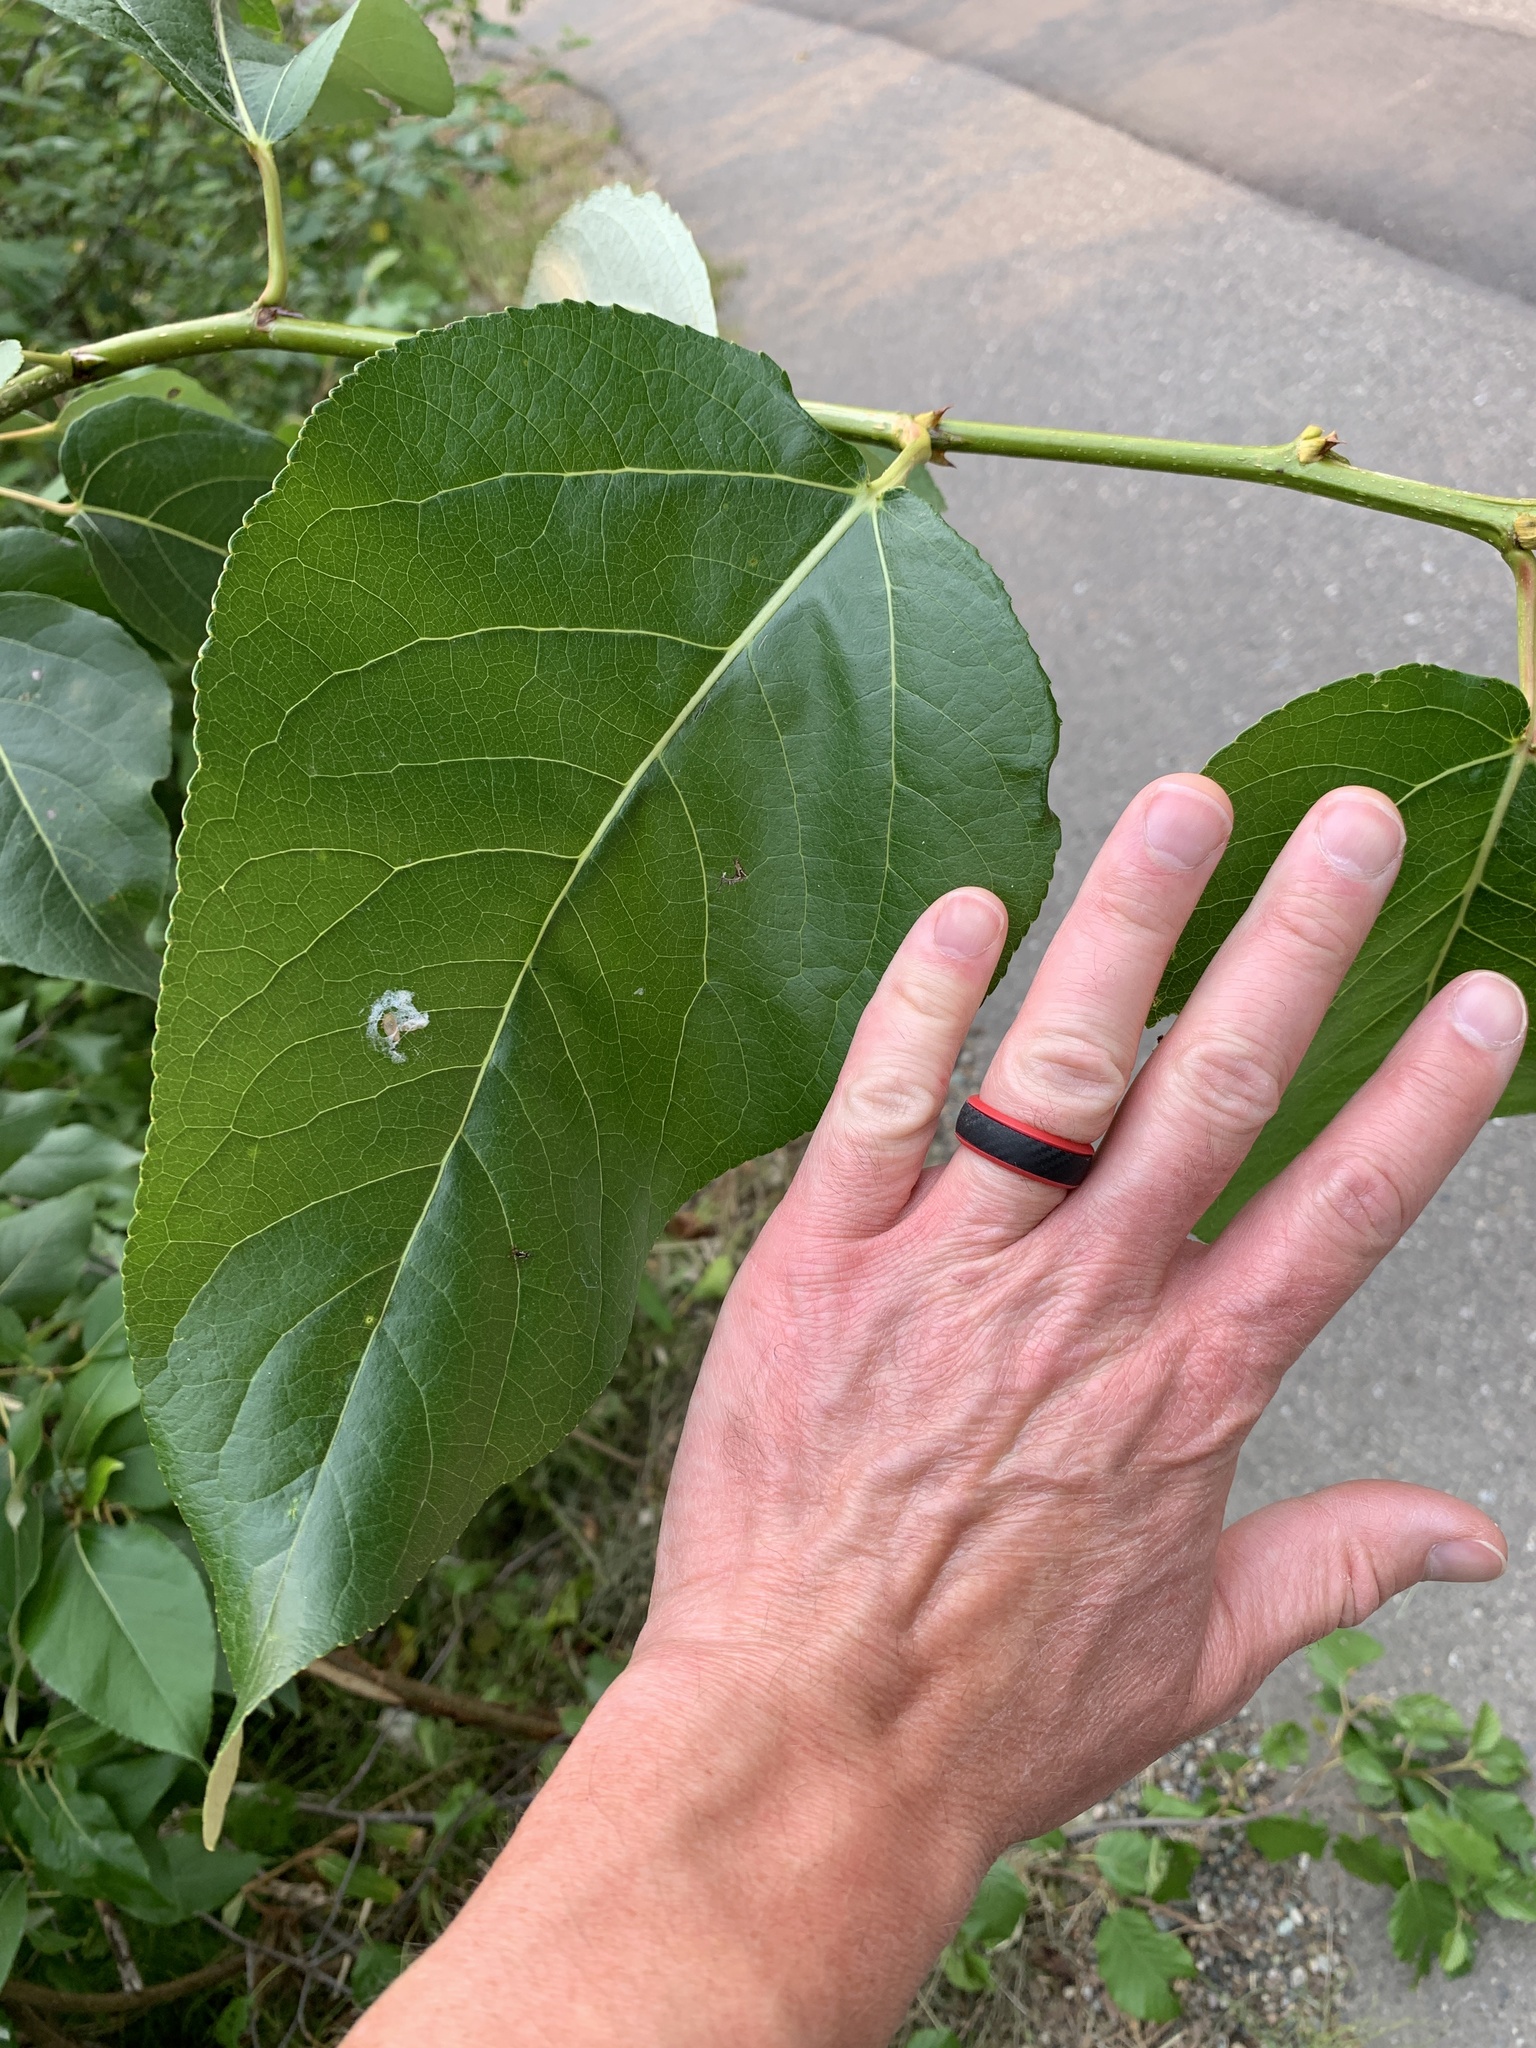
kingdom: Plantae
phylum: Tracheophyta
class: Magnoliopsida
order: Malpighiales
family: Salicaceae
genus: Populus
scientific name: Populus balsamifera
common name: Balsam poplar
